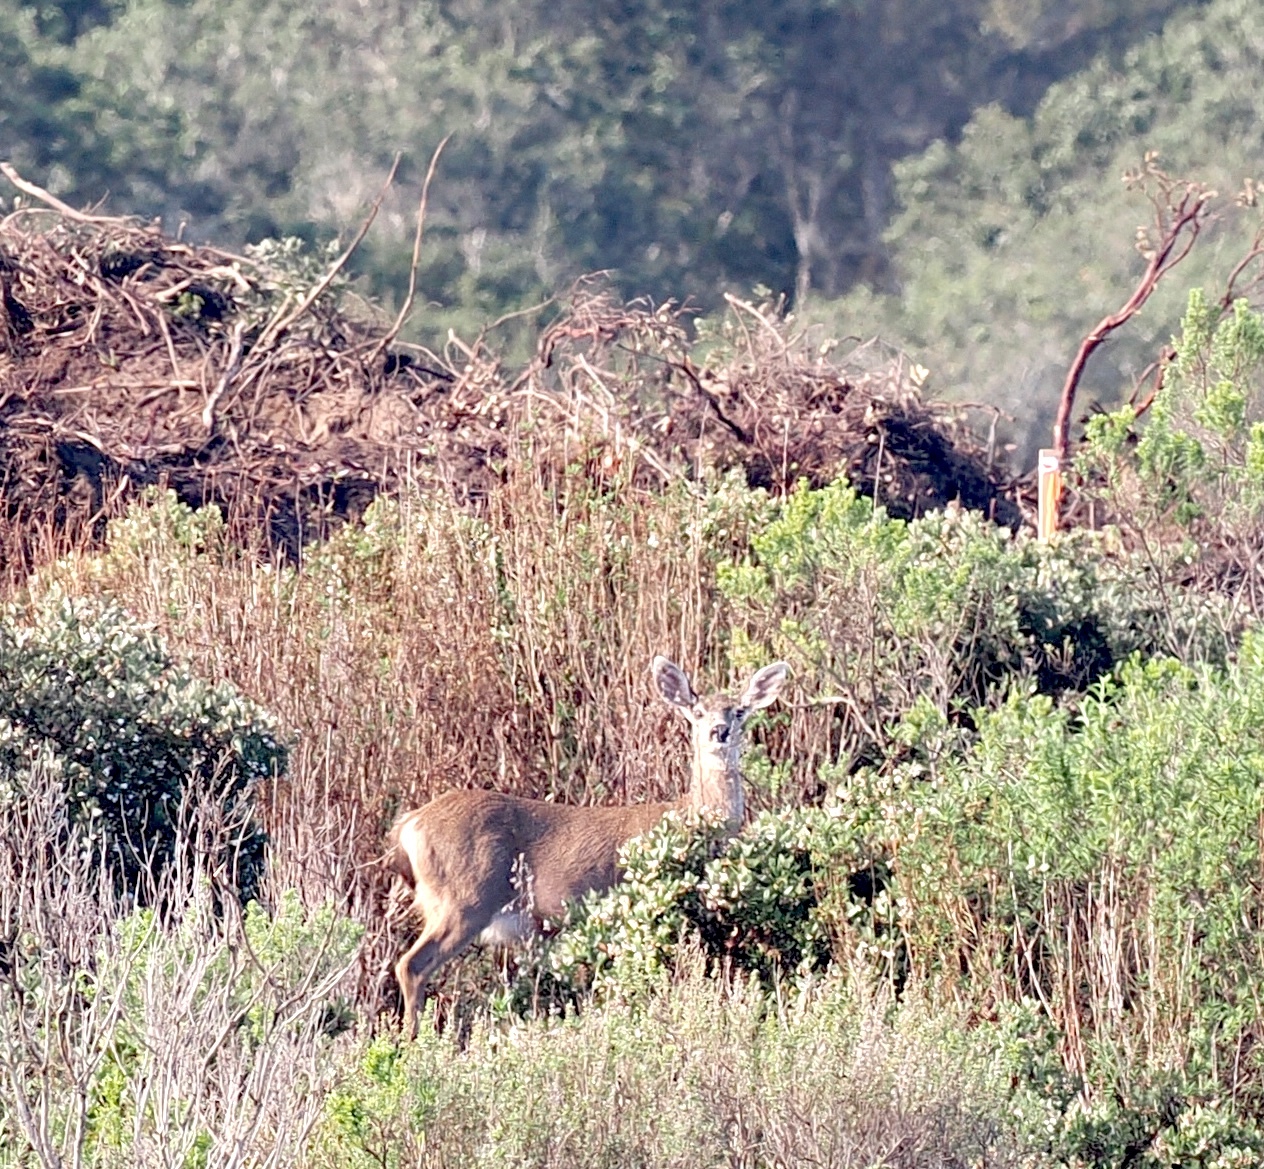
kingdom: Animalia
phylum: Chordata
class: Mammalia
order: Artiodactyla
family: Cervidae
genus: Odocoileus
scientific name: Odocoileus hemionus
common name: Mule deer
